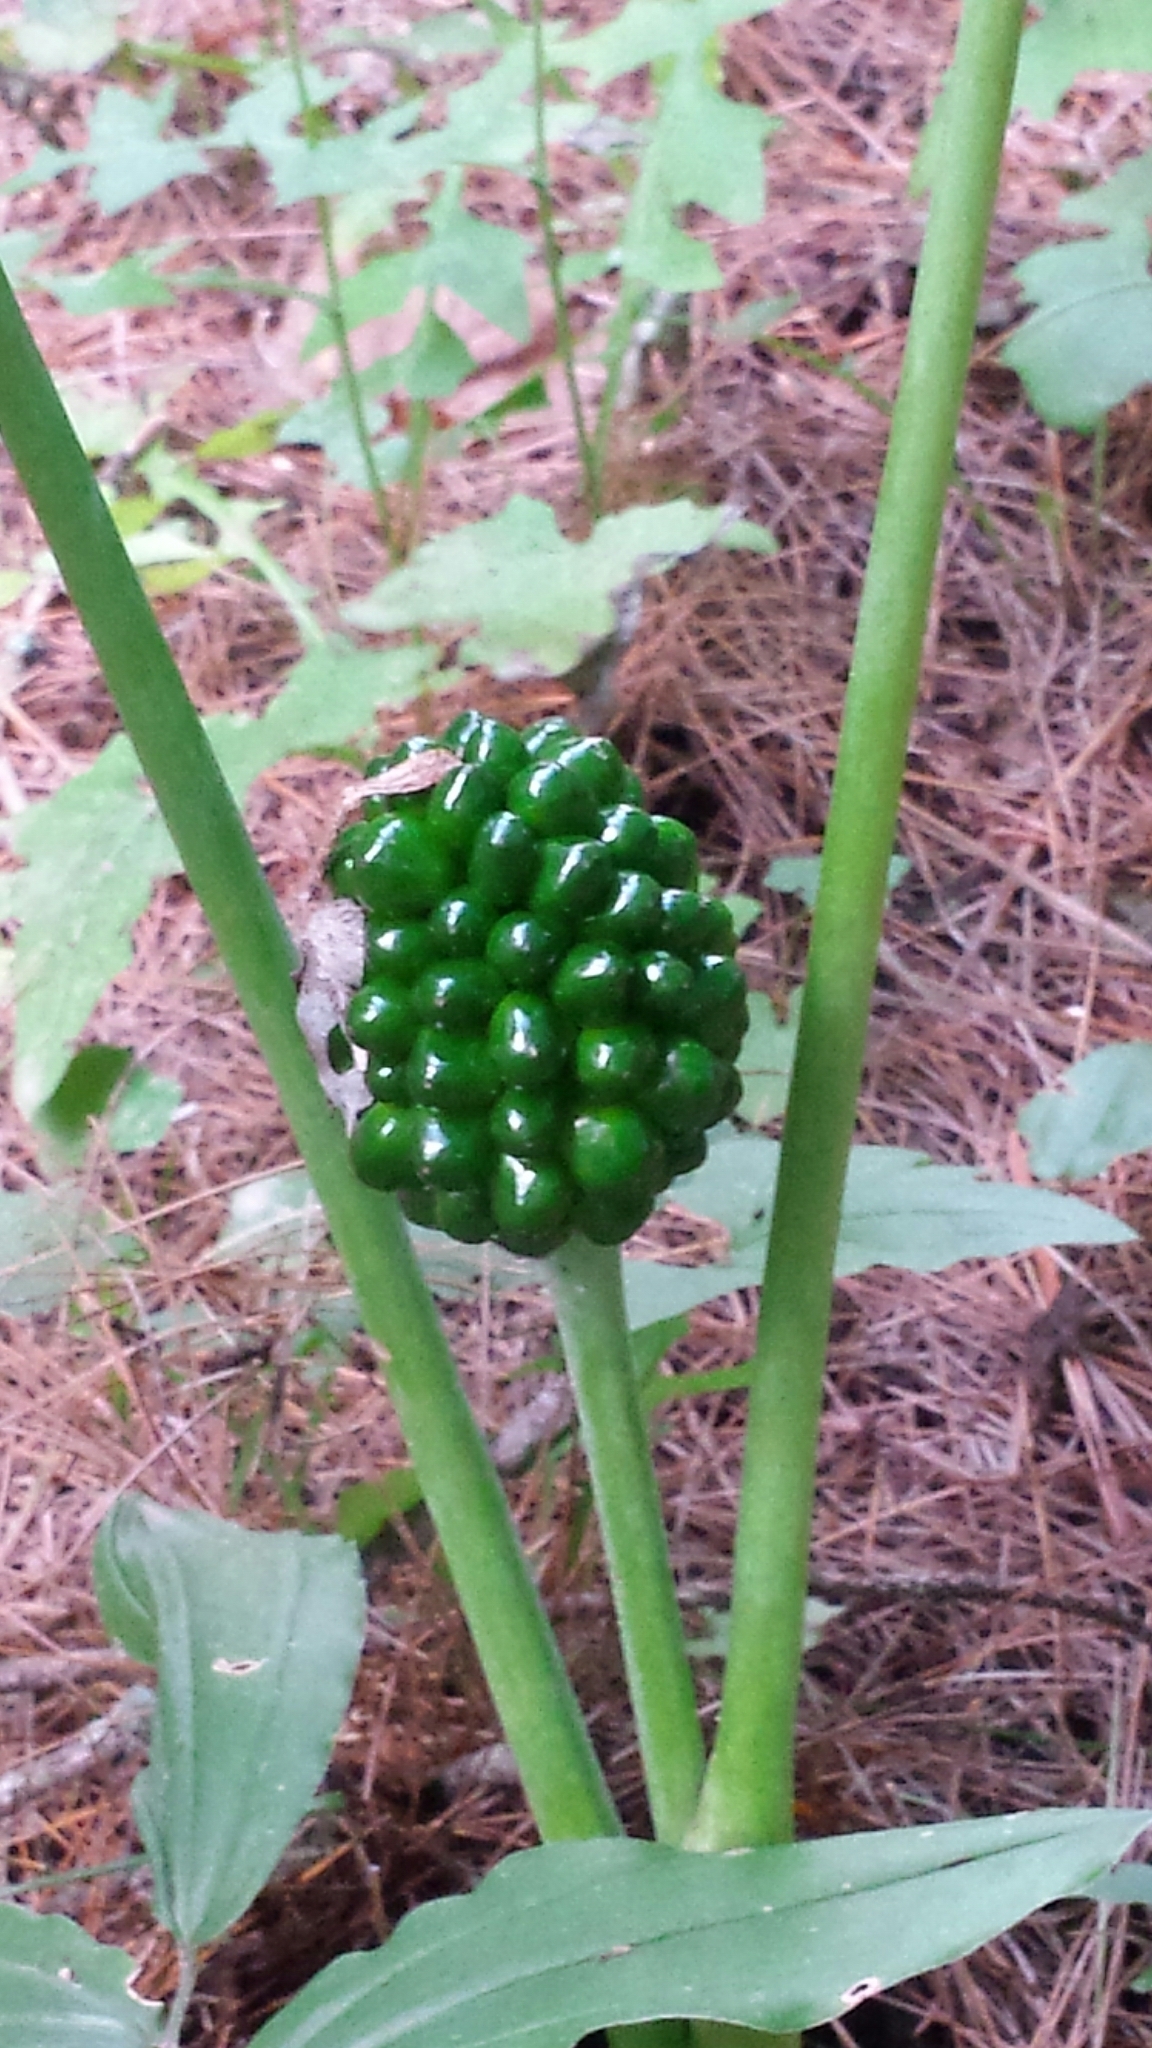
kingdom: Plantae
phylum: Tracheophyta
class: Liliopsida
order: Alismatales
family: Araceae
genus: Arisaema
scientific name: Arisaema
